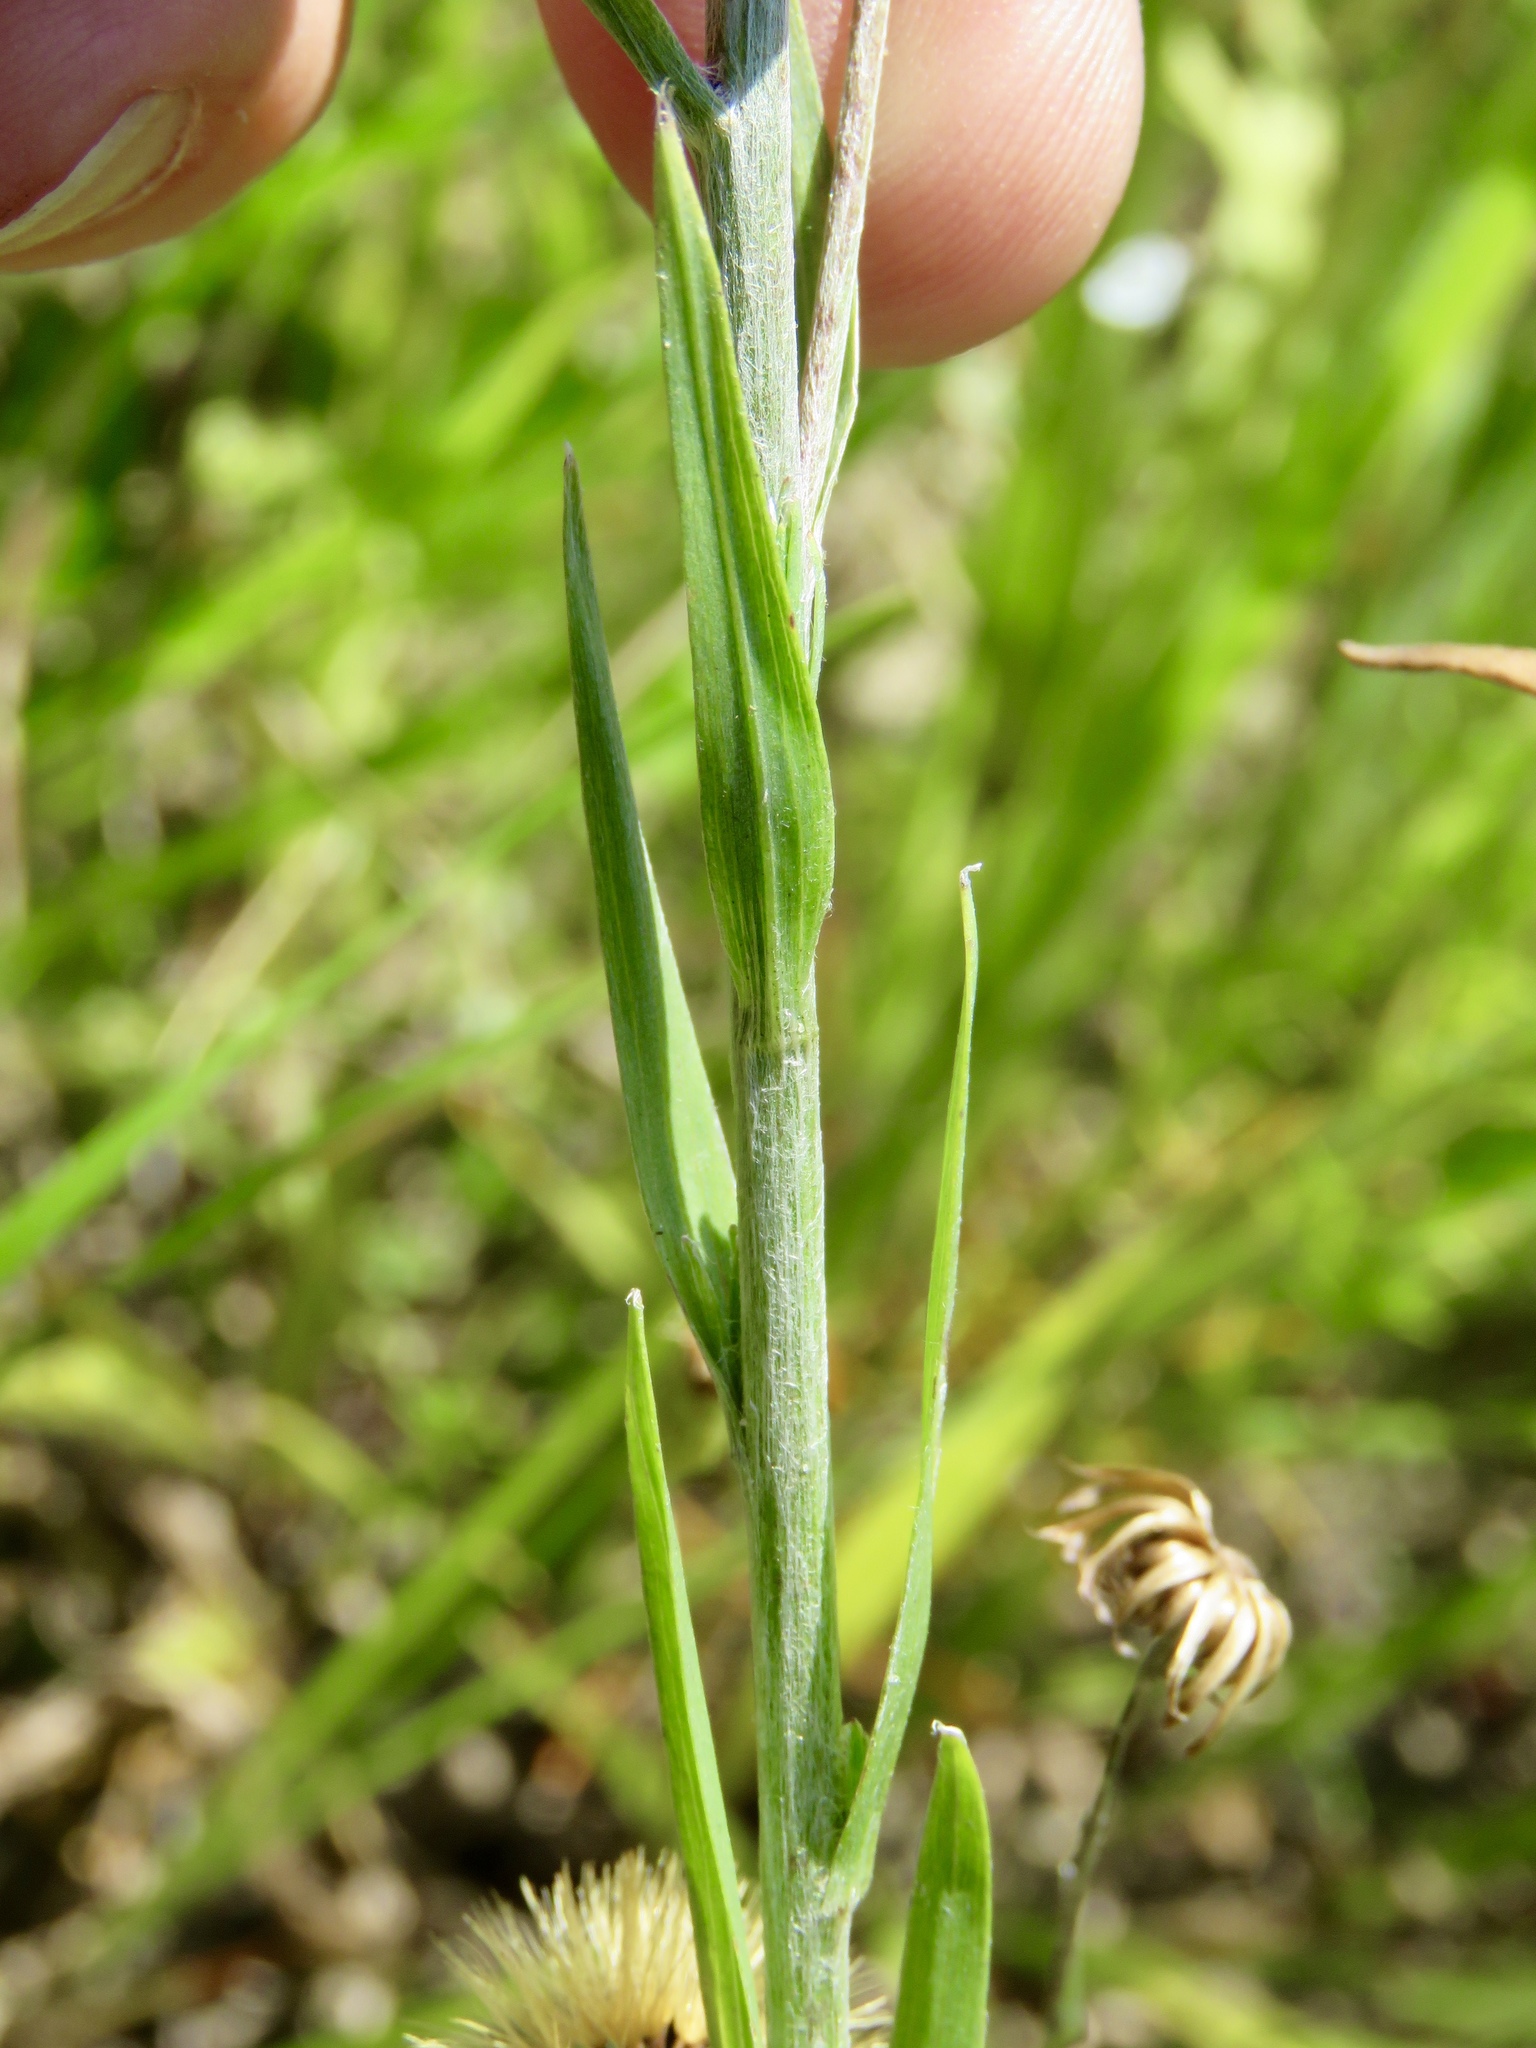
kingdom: Plantae
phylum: Tracheophyta
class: Magnoliopsida
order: Asterales
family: Asteraceae
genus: Pityopsis
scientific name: Pityopsis graminifolia
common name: Grass-leaf golden-aster
